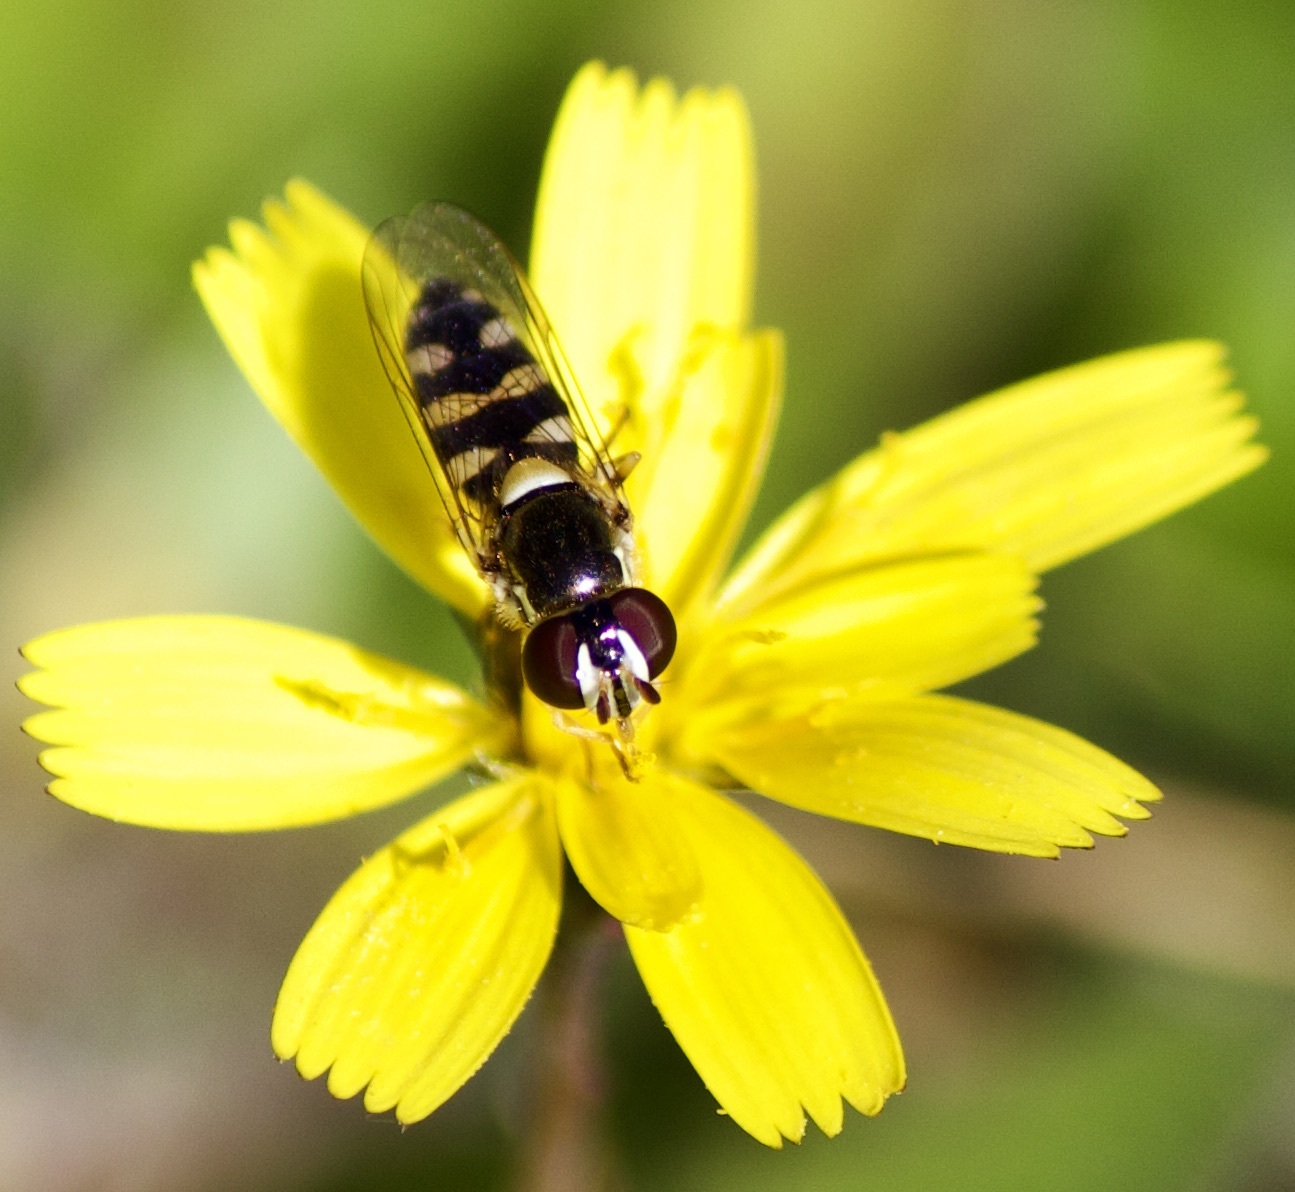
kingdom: Animalia
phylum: Arthropoda
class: Insecta
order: Diptera
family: Syrphidae
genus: Allograpta
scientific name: Allograpta hortensis
